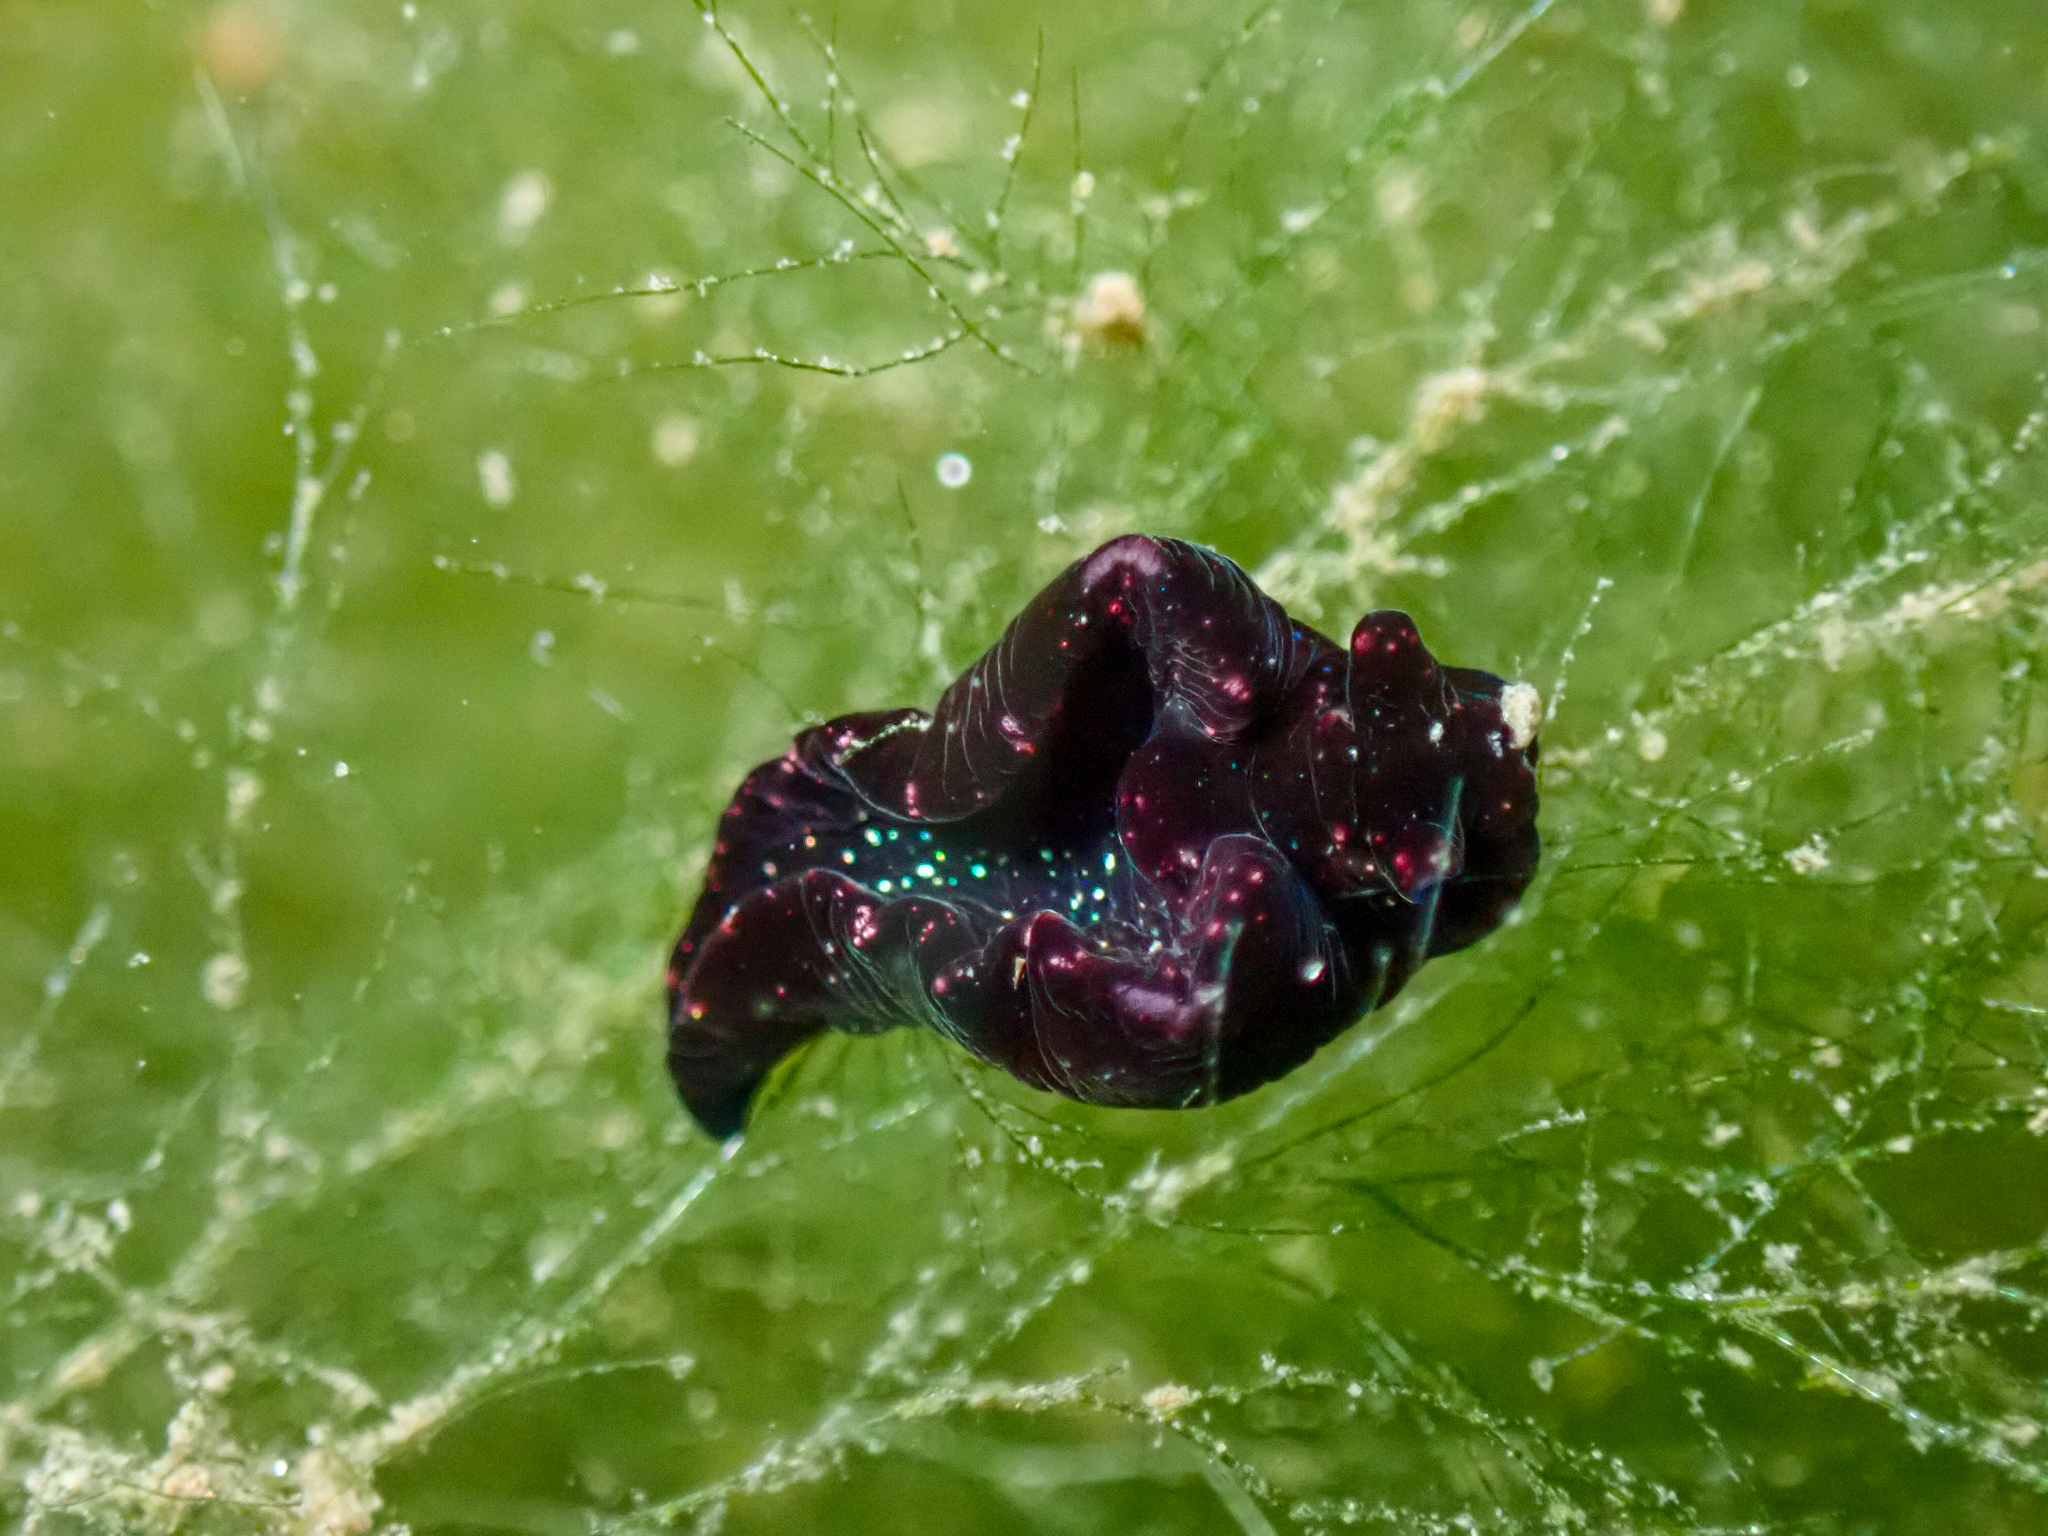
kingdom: Animalia
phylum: Mollusca
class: Gastropoda
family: Plakobranchidae
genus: Elysia
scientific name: Elysia viridis
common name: Green elysia
